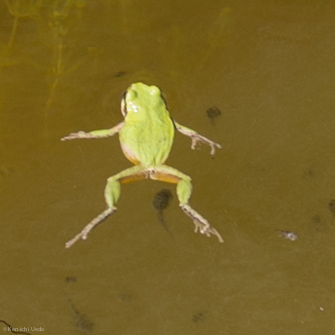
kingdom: Animalia
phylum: Chordata
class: Amphibia
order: Anura
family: Hylidae
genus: Pseudacris
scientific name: Pseudacris regilla
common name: Pacific chorus frog
